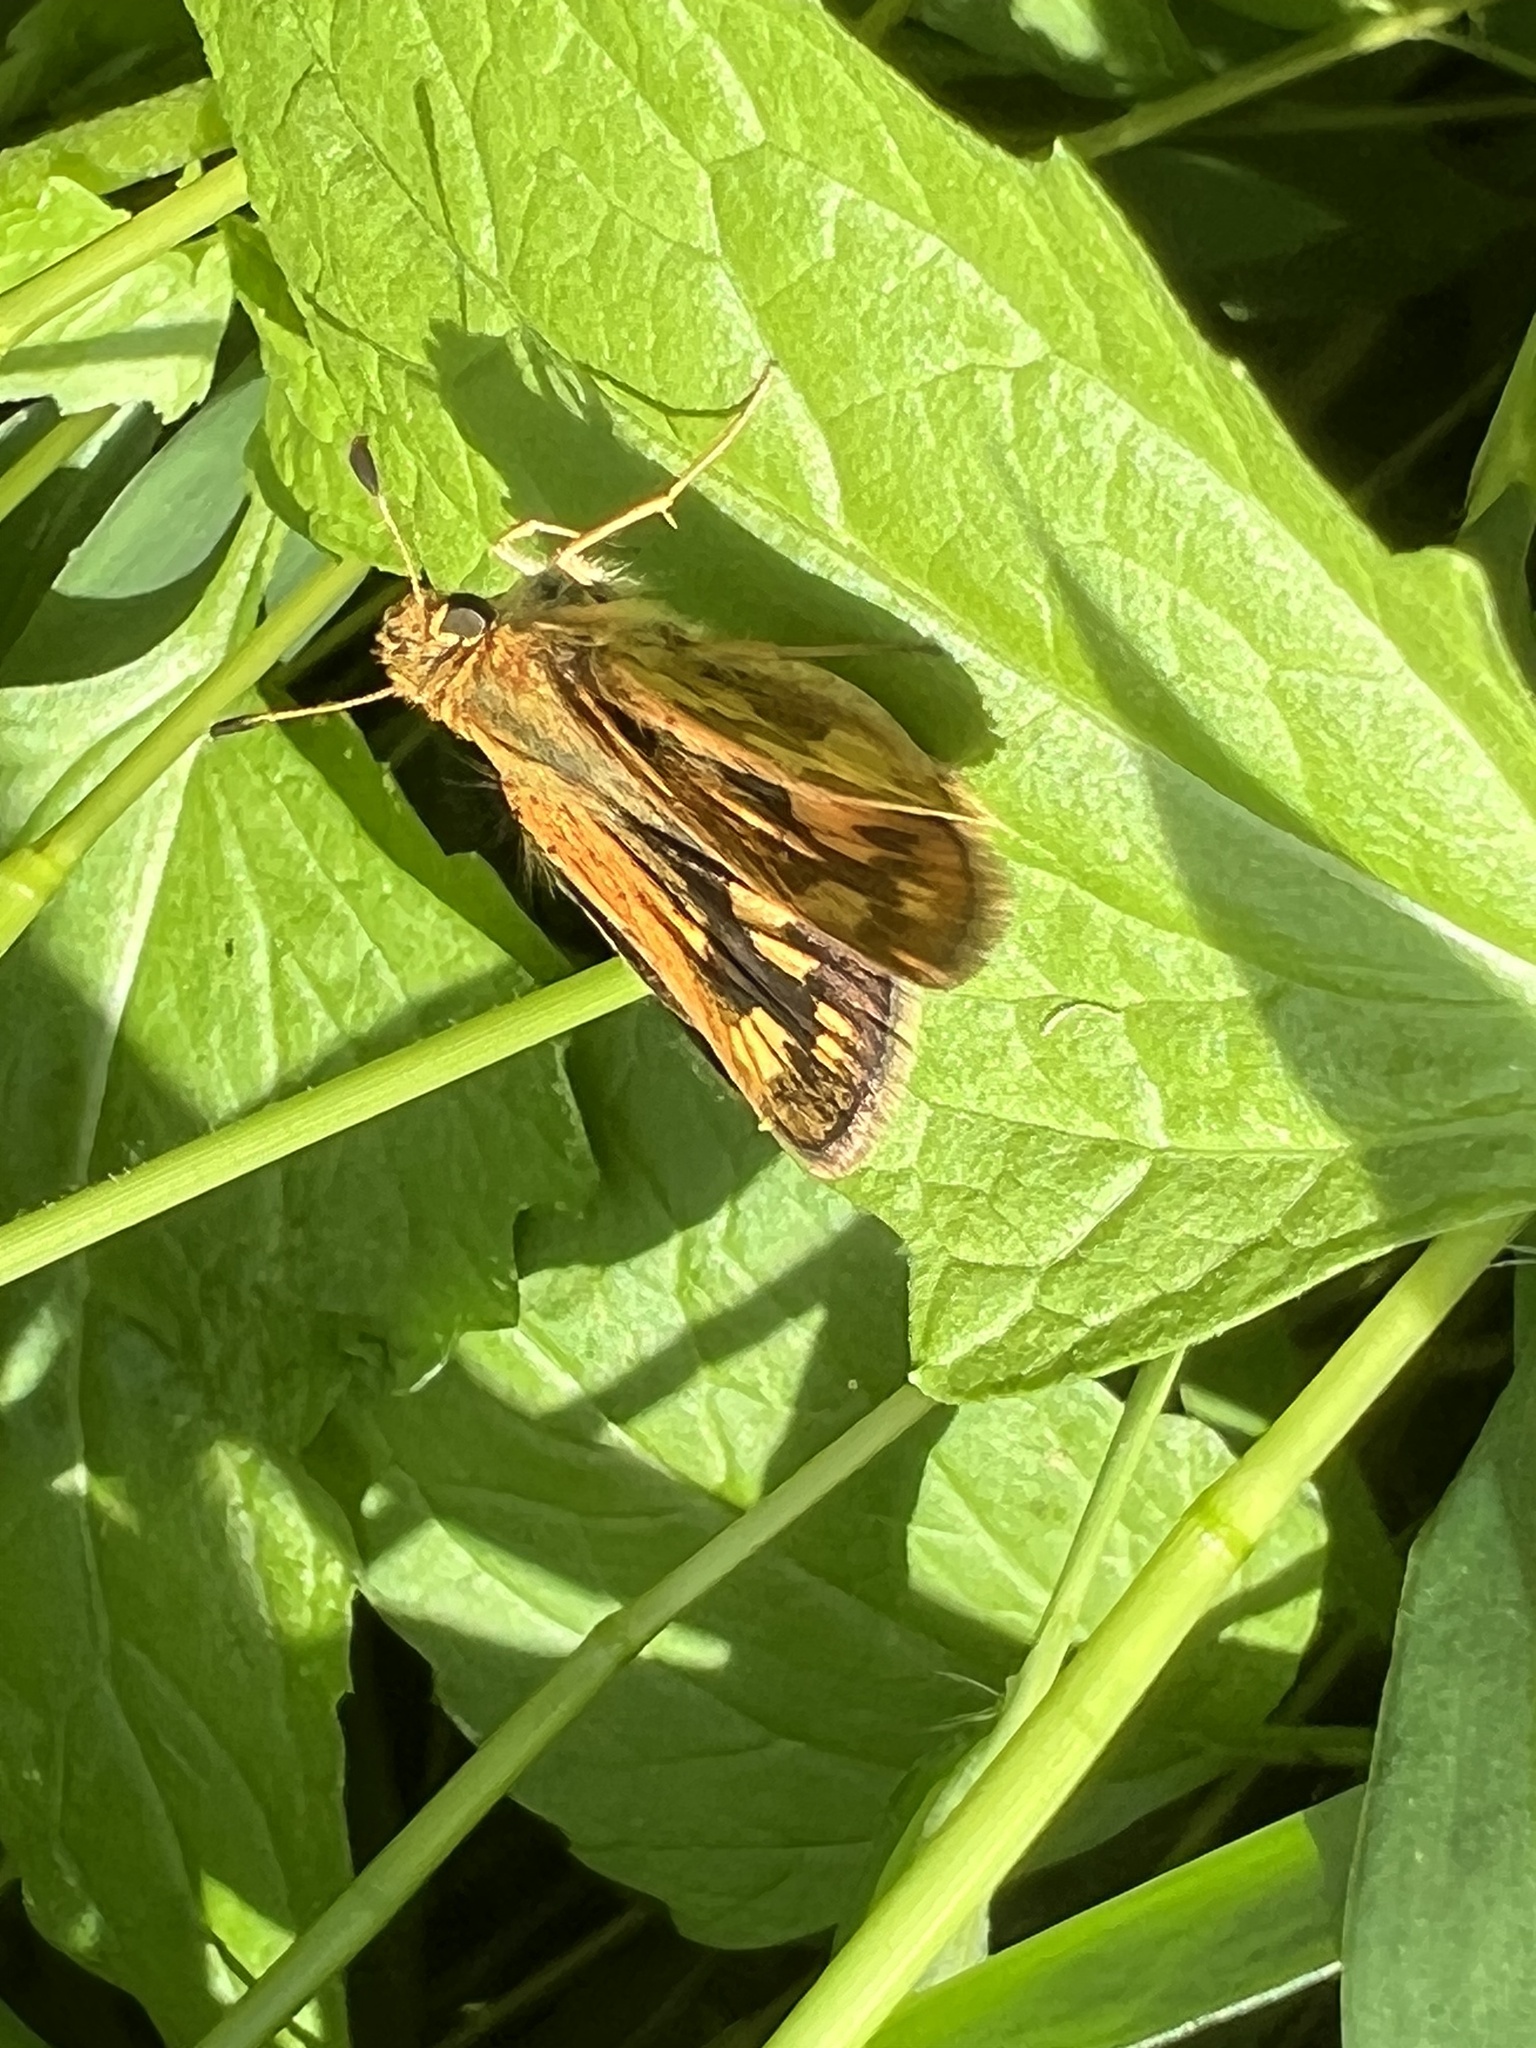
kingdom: Animalia
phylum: Arthropoda
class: Insecta
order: Lepidoptera
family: Hesperiidae
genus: Polites
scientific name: Polites coras
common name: Peck's skipper
